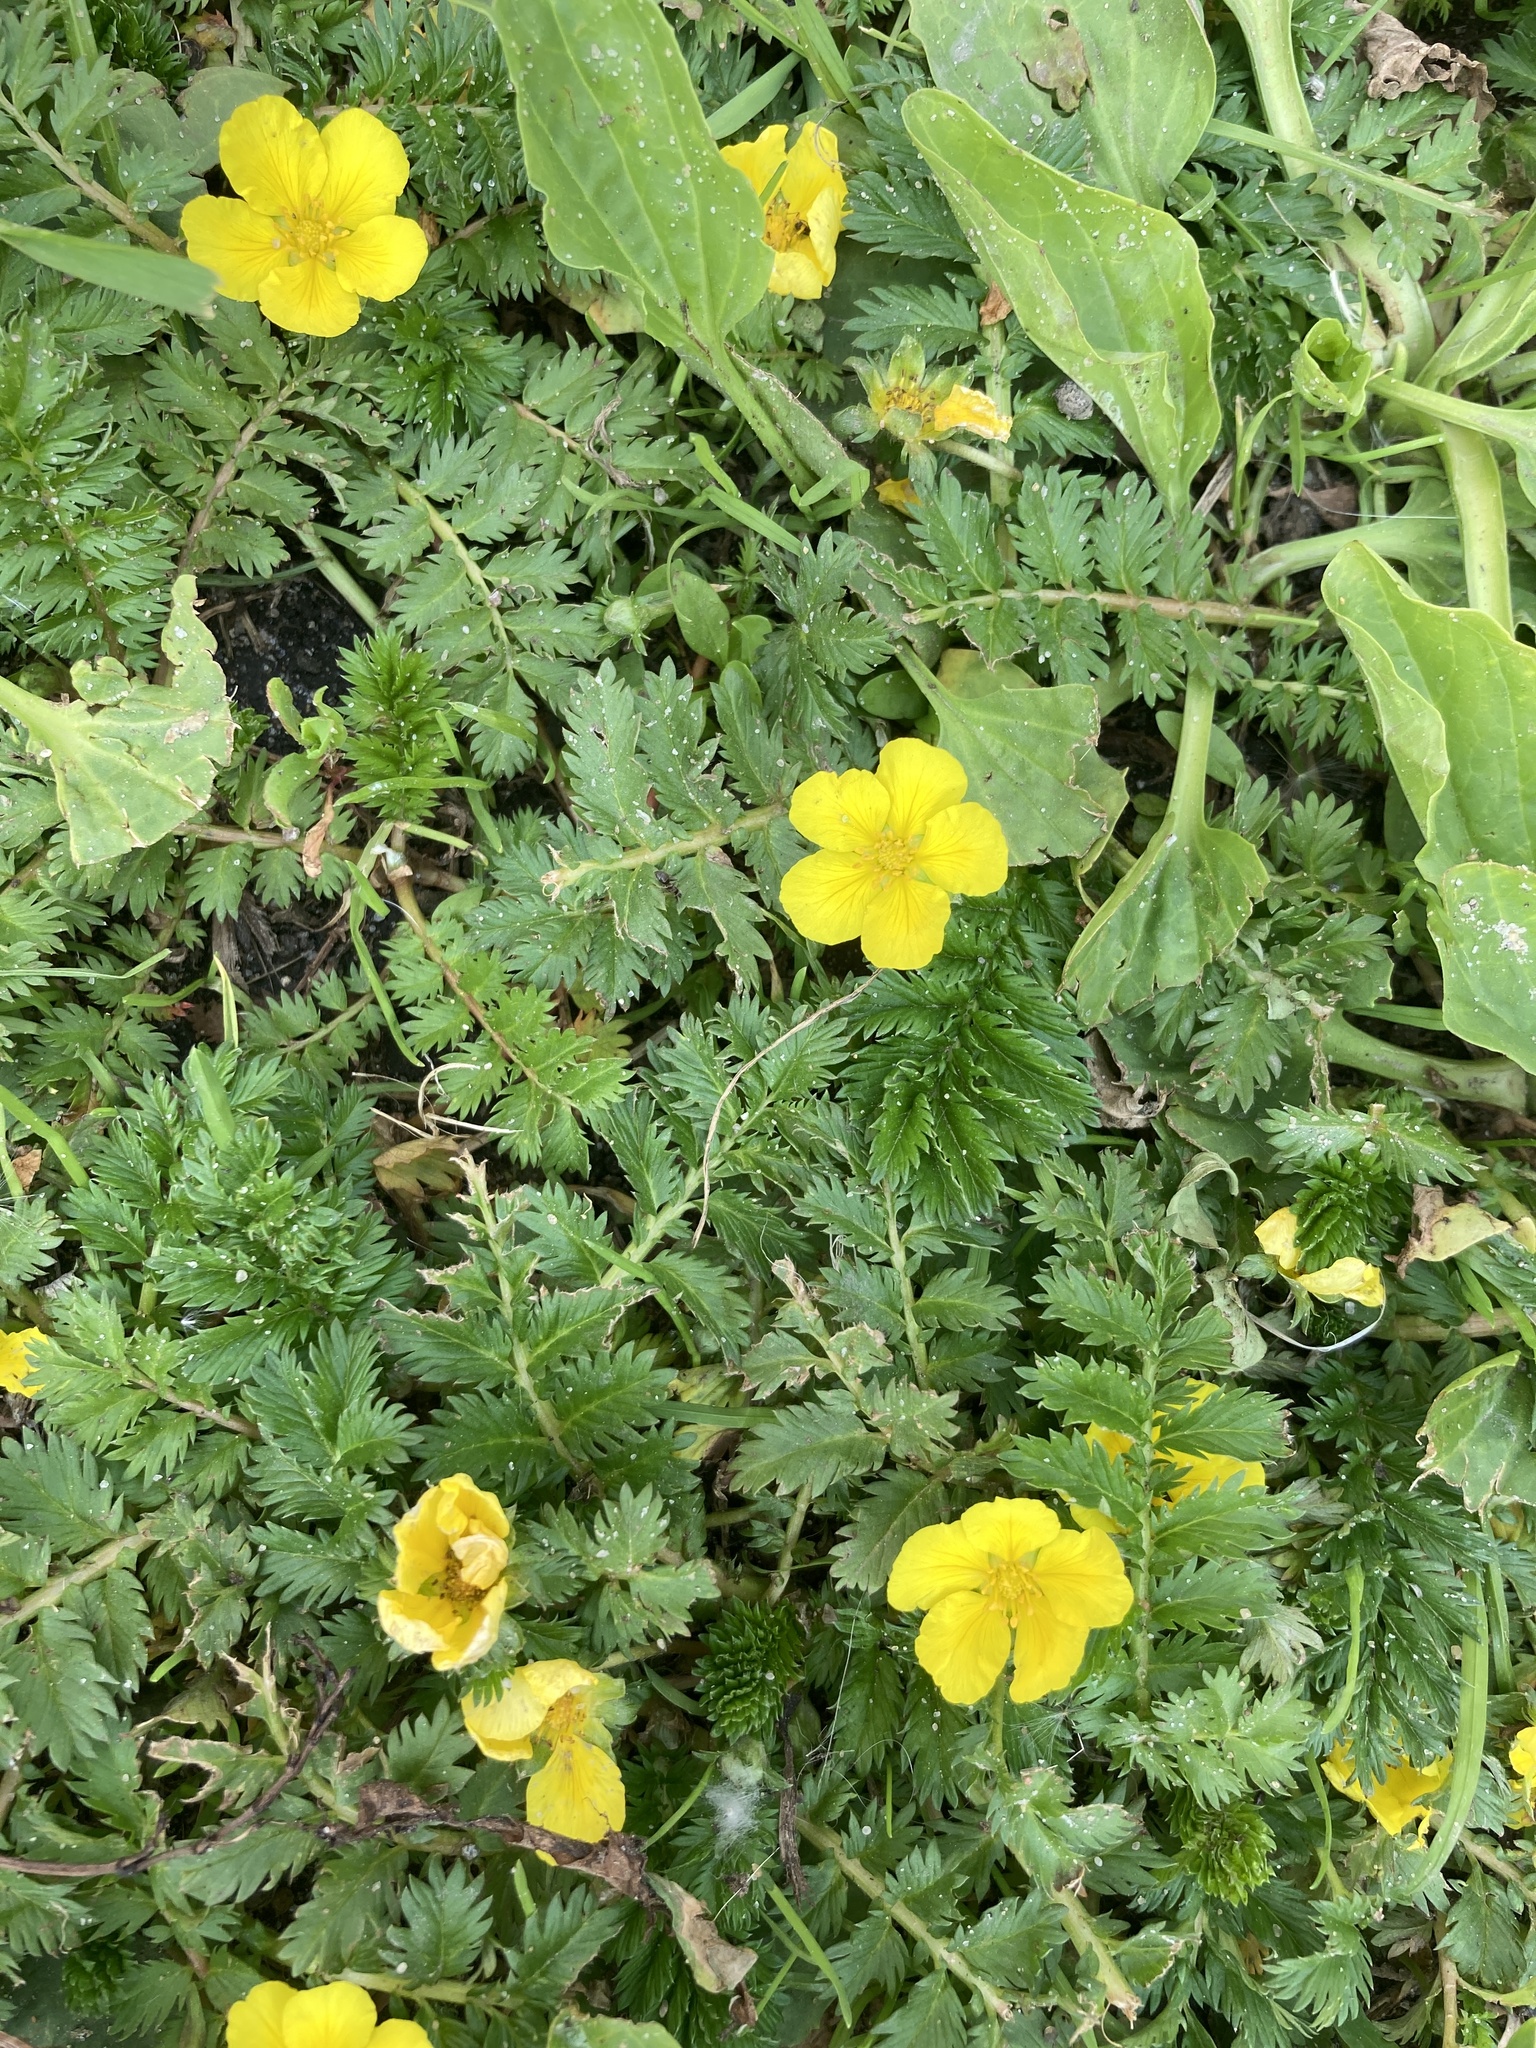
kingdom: Plantae
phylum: Tracheophyta
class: Magnoliopsida
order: Rosales
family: Rosaceae
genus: Argentina
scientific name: Argentina anserina
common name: Common silverweed
